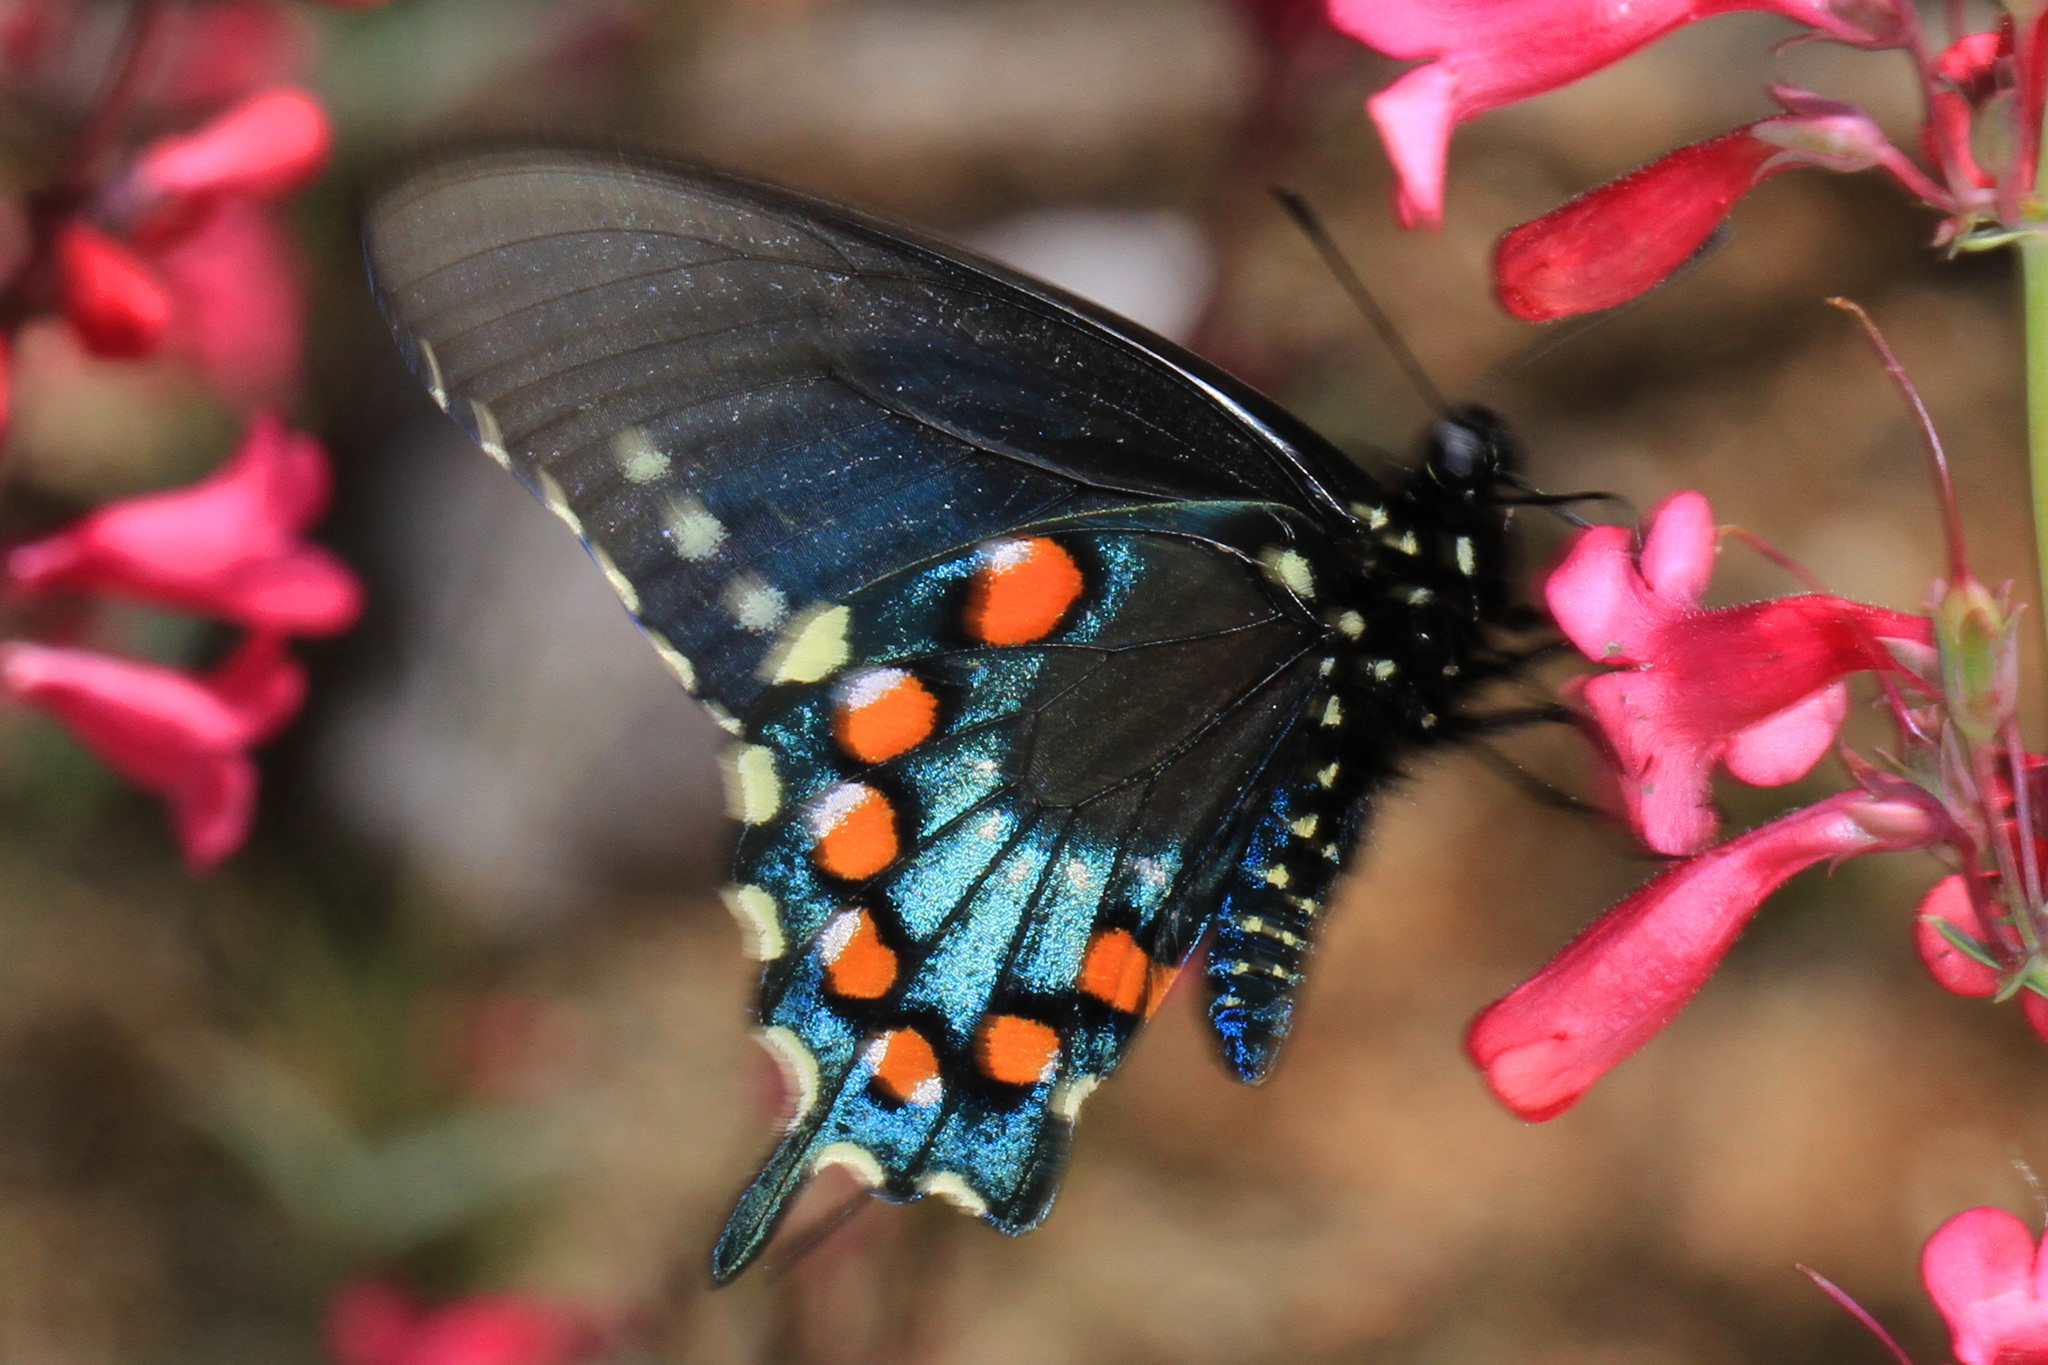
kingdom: Animalia
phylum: Arthropoda
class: Insecta
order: Lepidoptera
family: Papilionidae
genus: Battus
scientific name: Battus philenor
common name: Pipevine swallowtail
